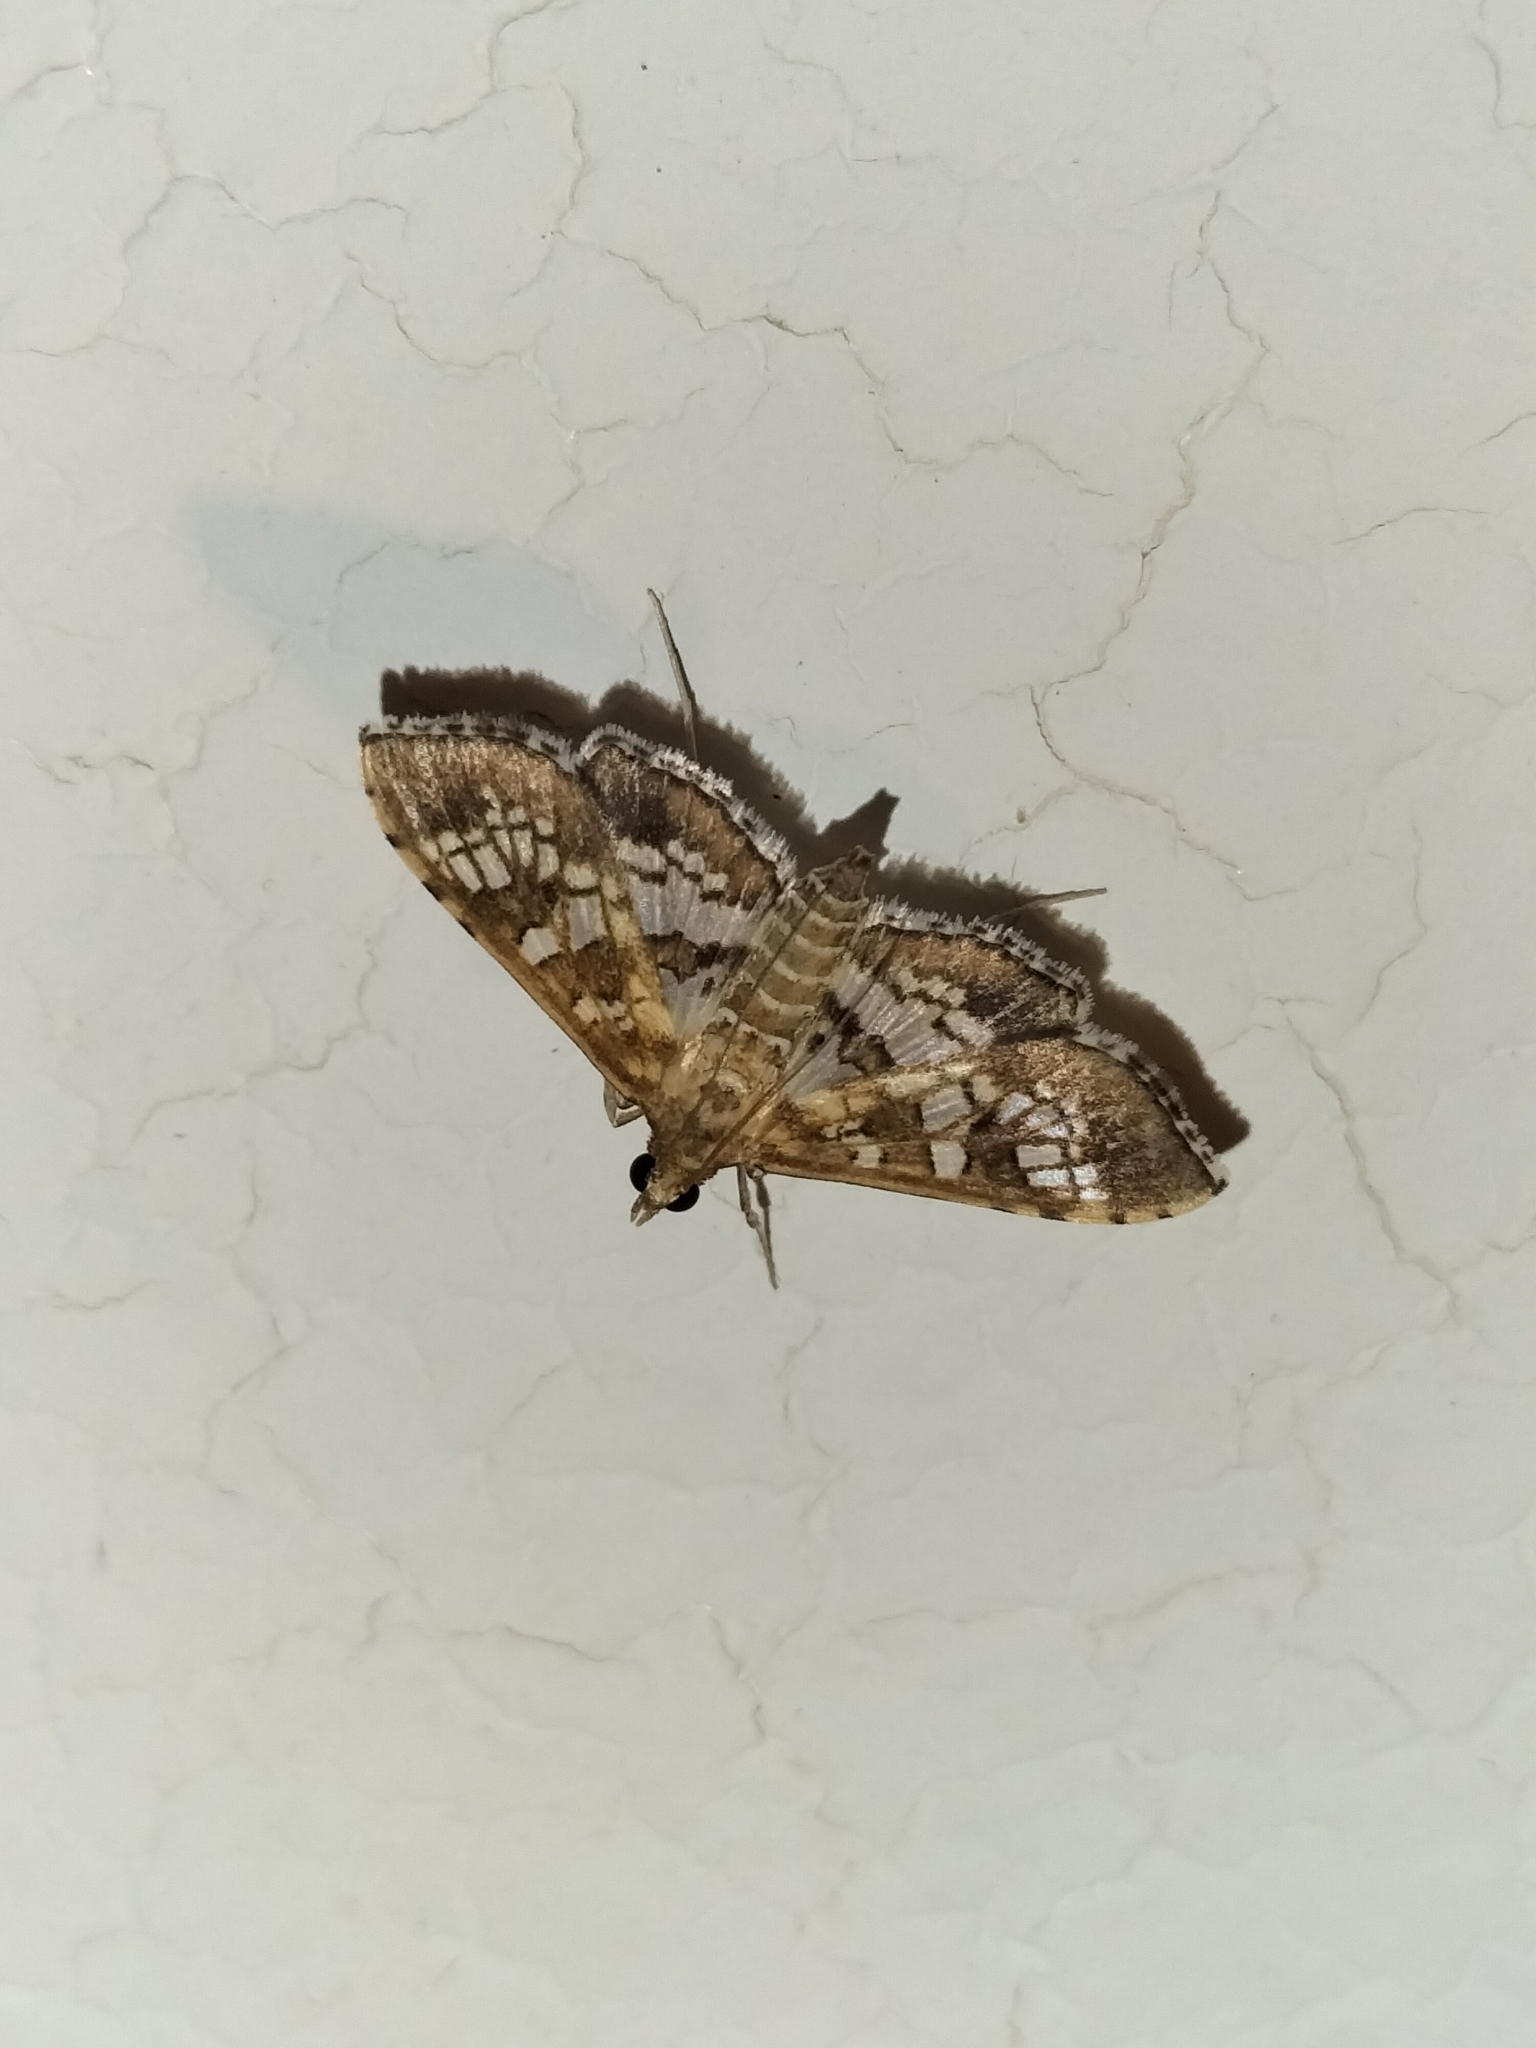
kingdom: Animalia
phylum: Arthropoda
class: Insecta
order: Lepidoptera
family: Crambidae
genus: Sameodes
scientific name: Sameodes cancellalis
